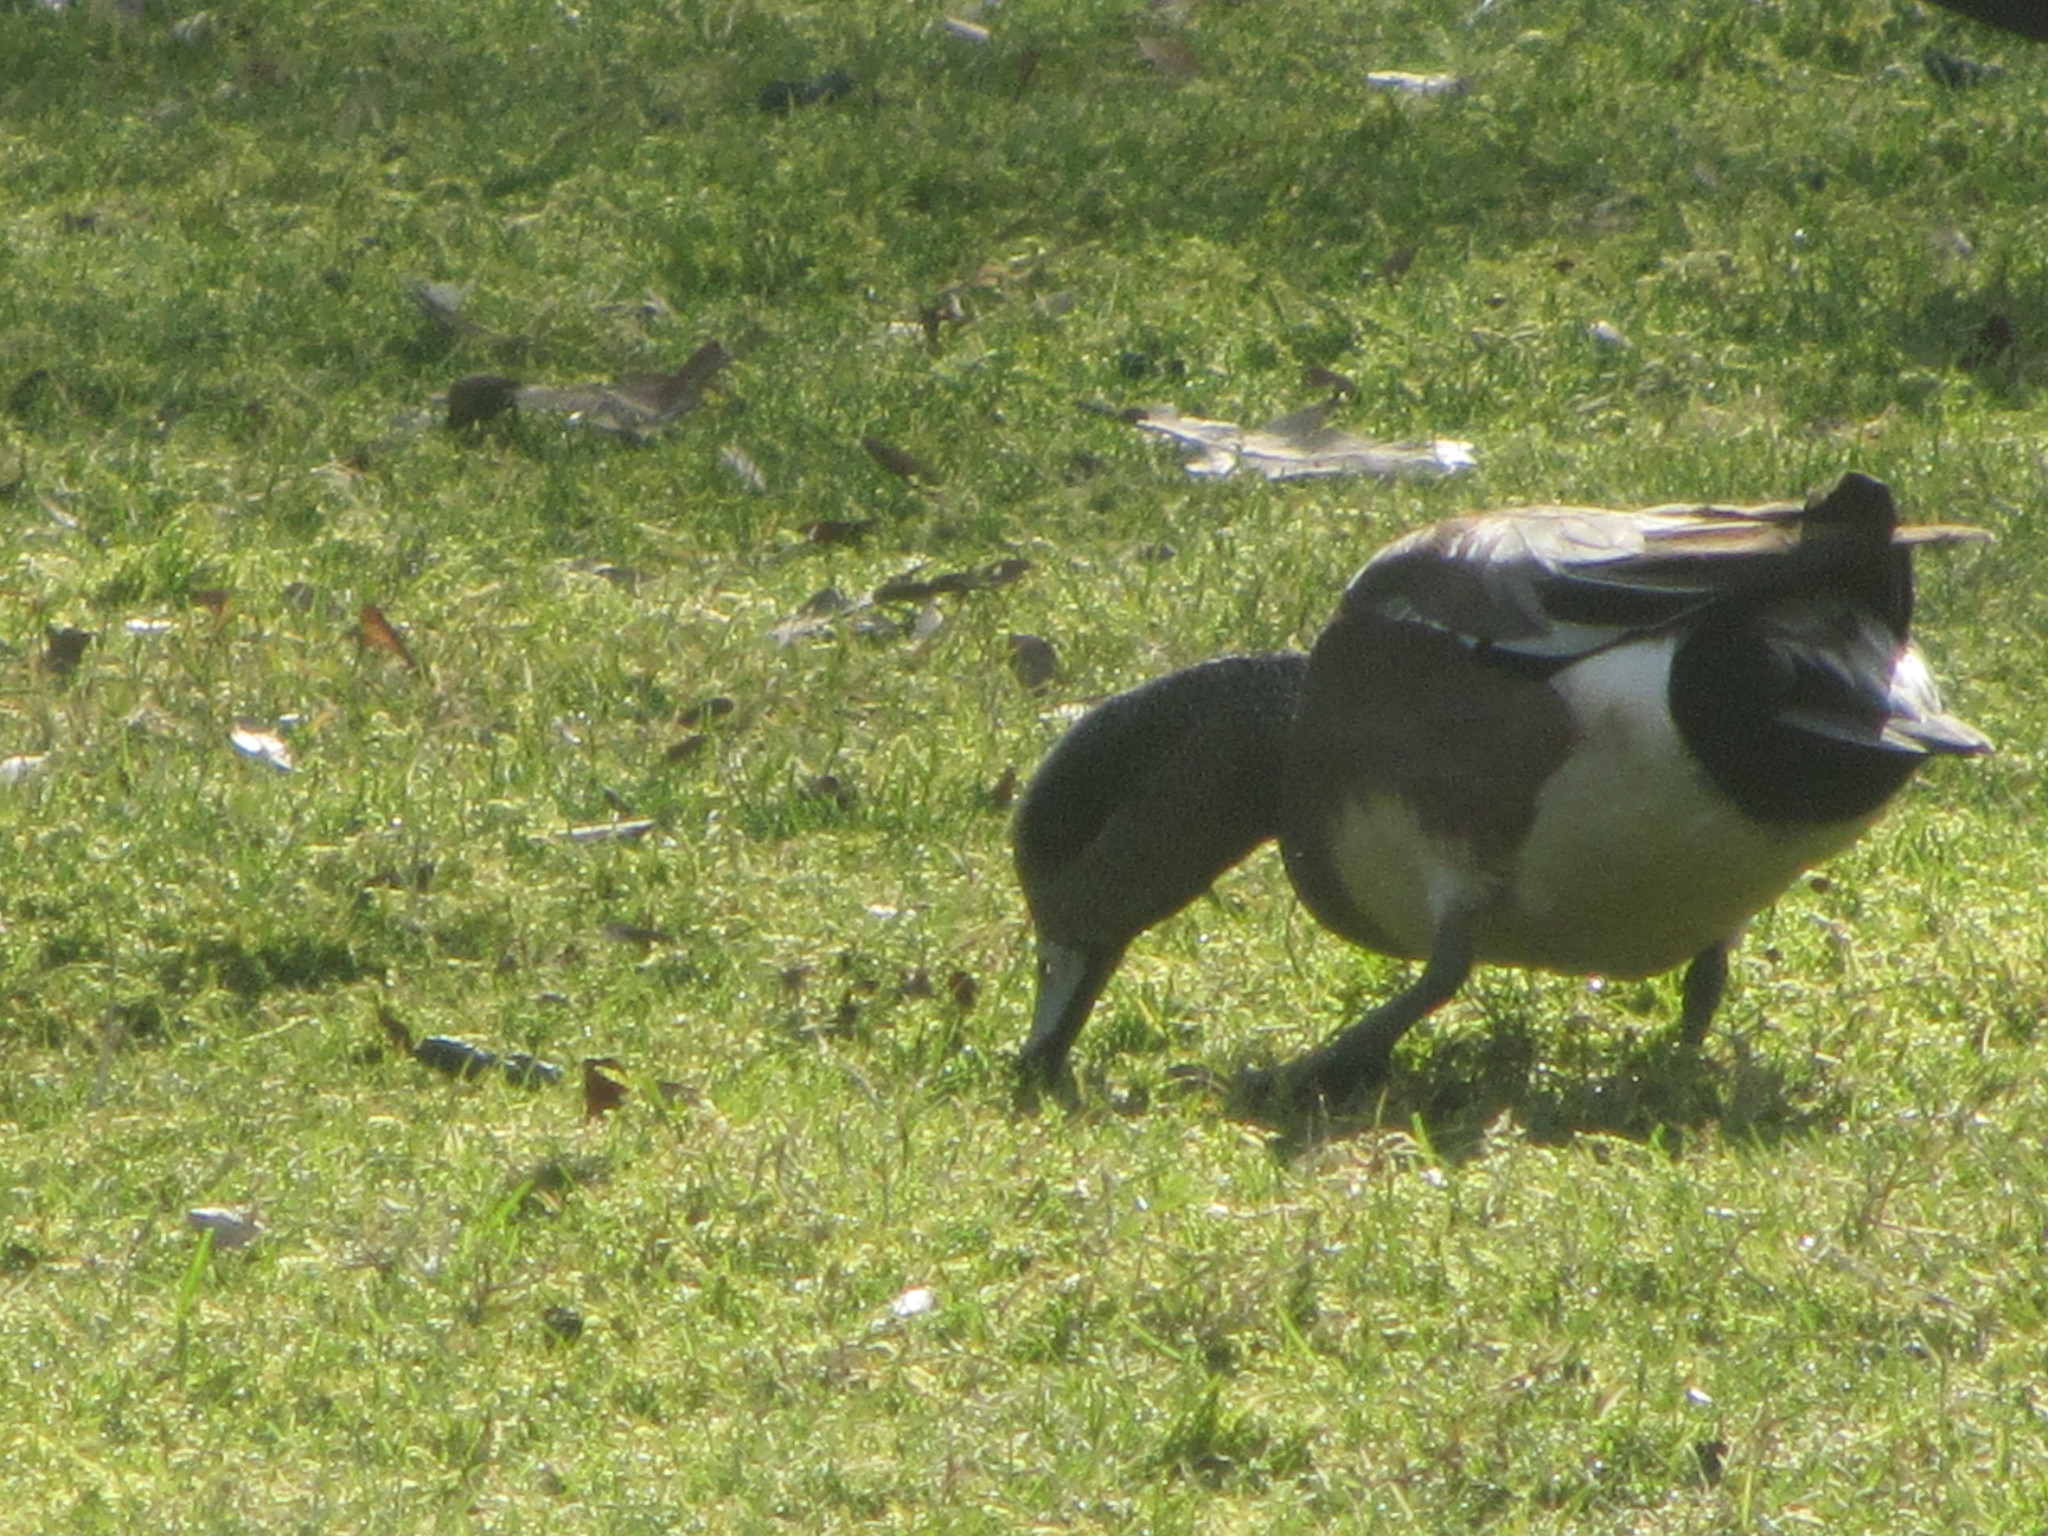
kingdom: Animalia
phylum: Chordata
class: Aves
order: Anseriformes
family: Anatidae
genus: Mareca
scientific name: Mareca americana
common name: American wigeon
